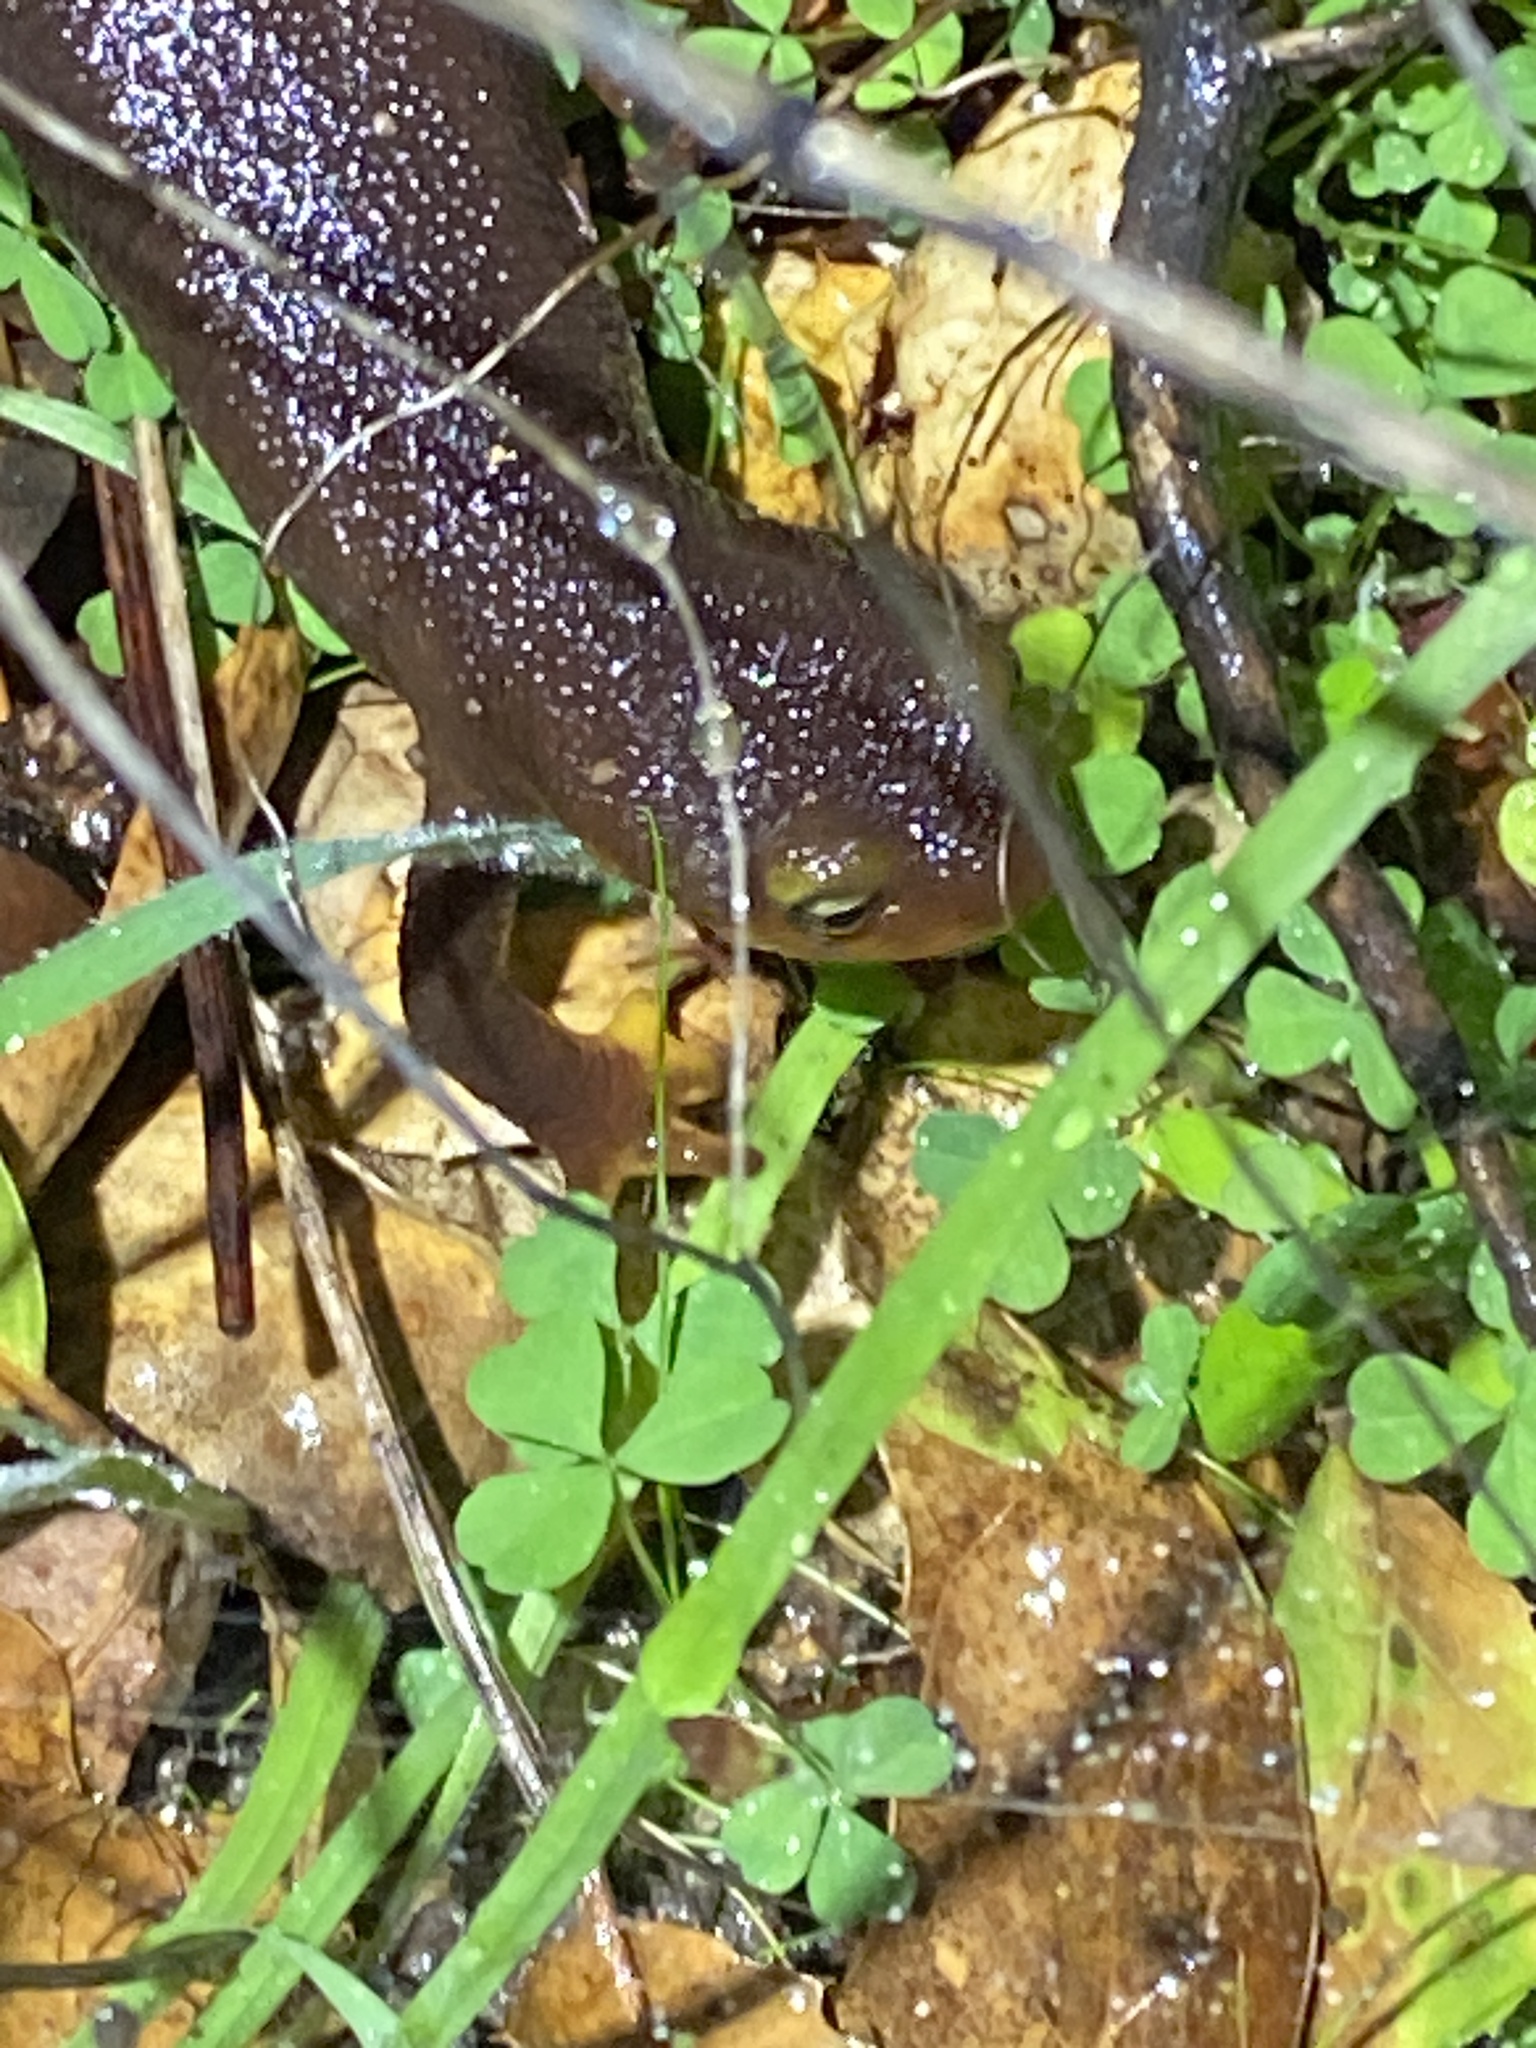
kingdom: Animalia
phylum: Chordata
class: Amphibia
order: Caudata
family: Salamandridae
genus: Taricha
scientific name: Taricha torosa
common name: California newt
